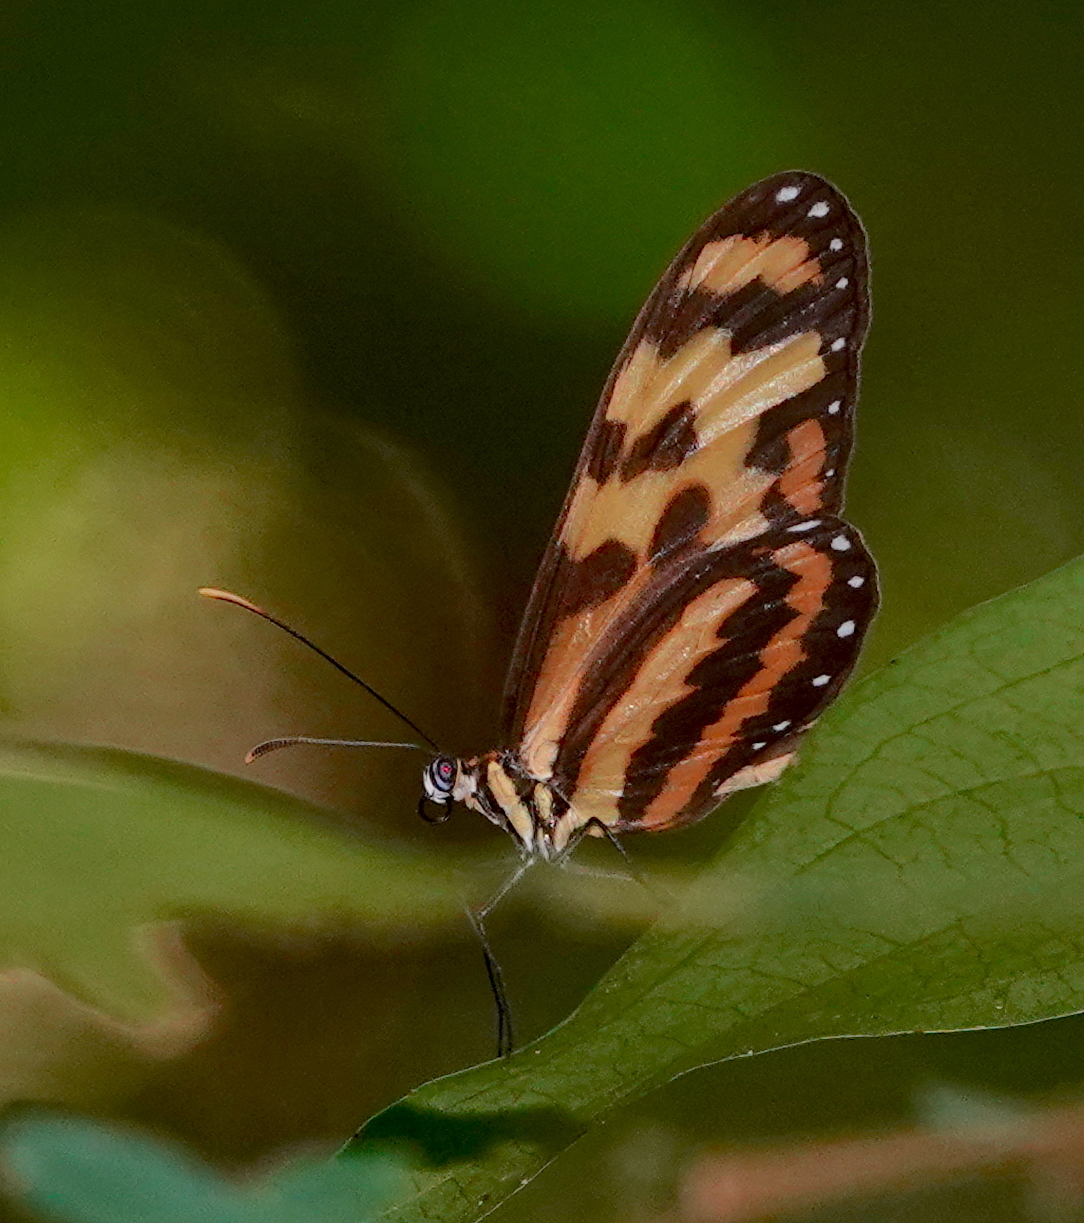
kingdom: Animalia
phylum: Arthropoda
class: Insecta
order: Lepidoptera
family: Nymphalidae
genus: Mechanitis
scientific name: Mechanitis menapis
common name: Menapis tigerwing
